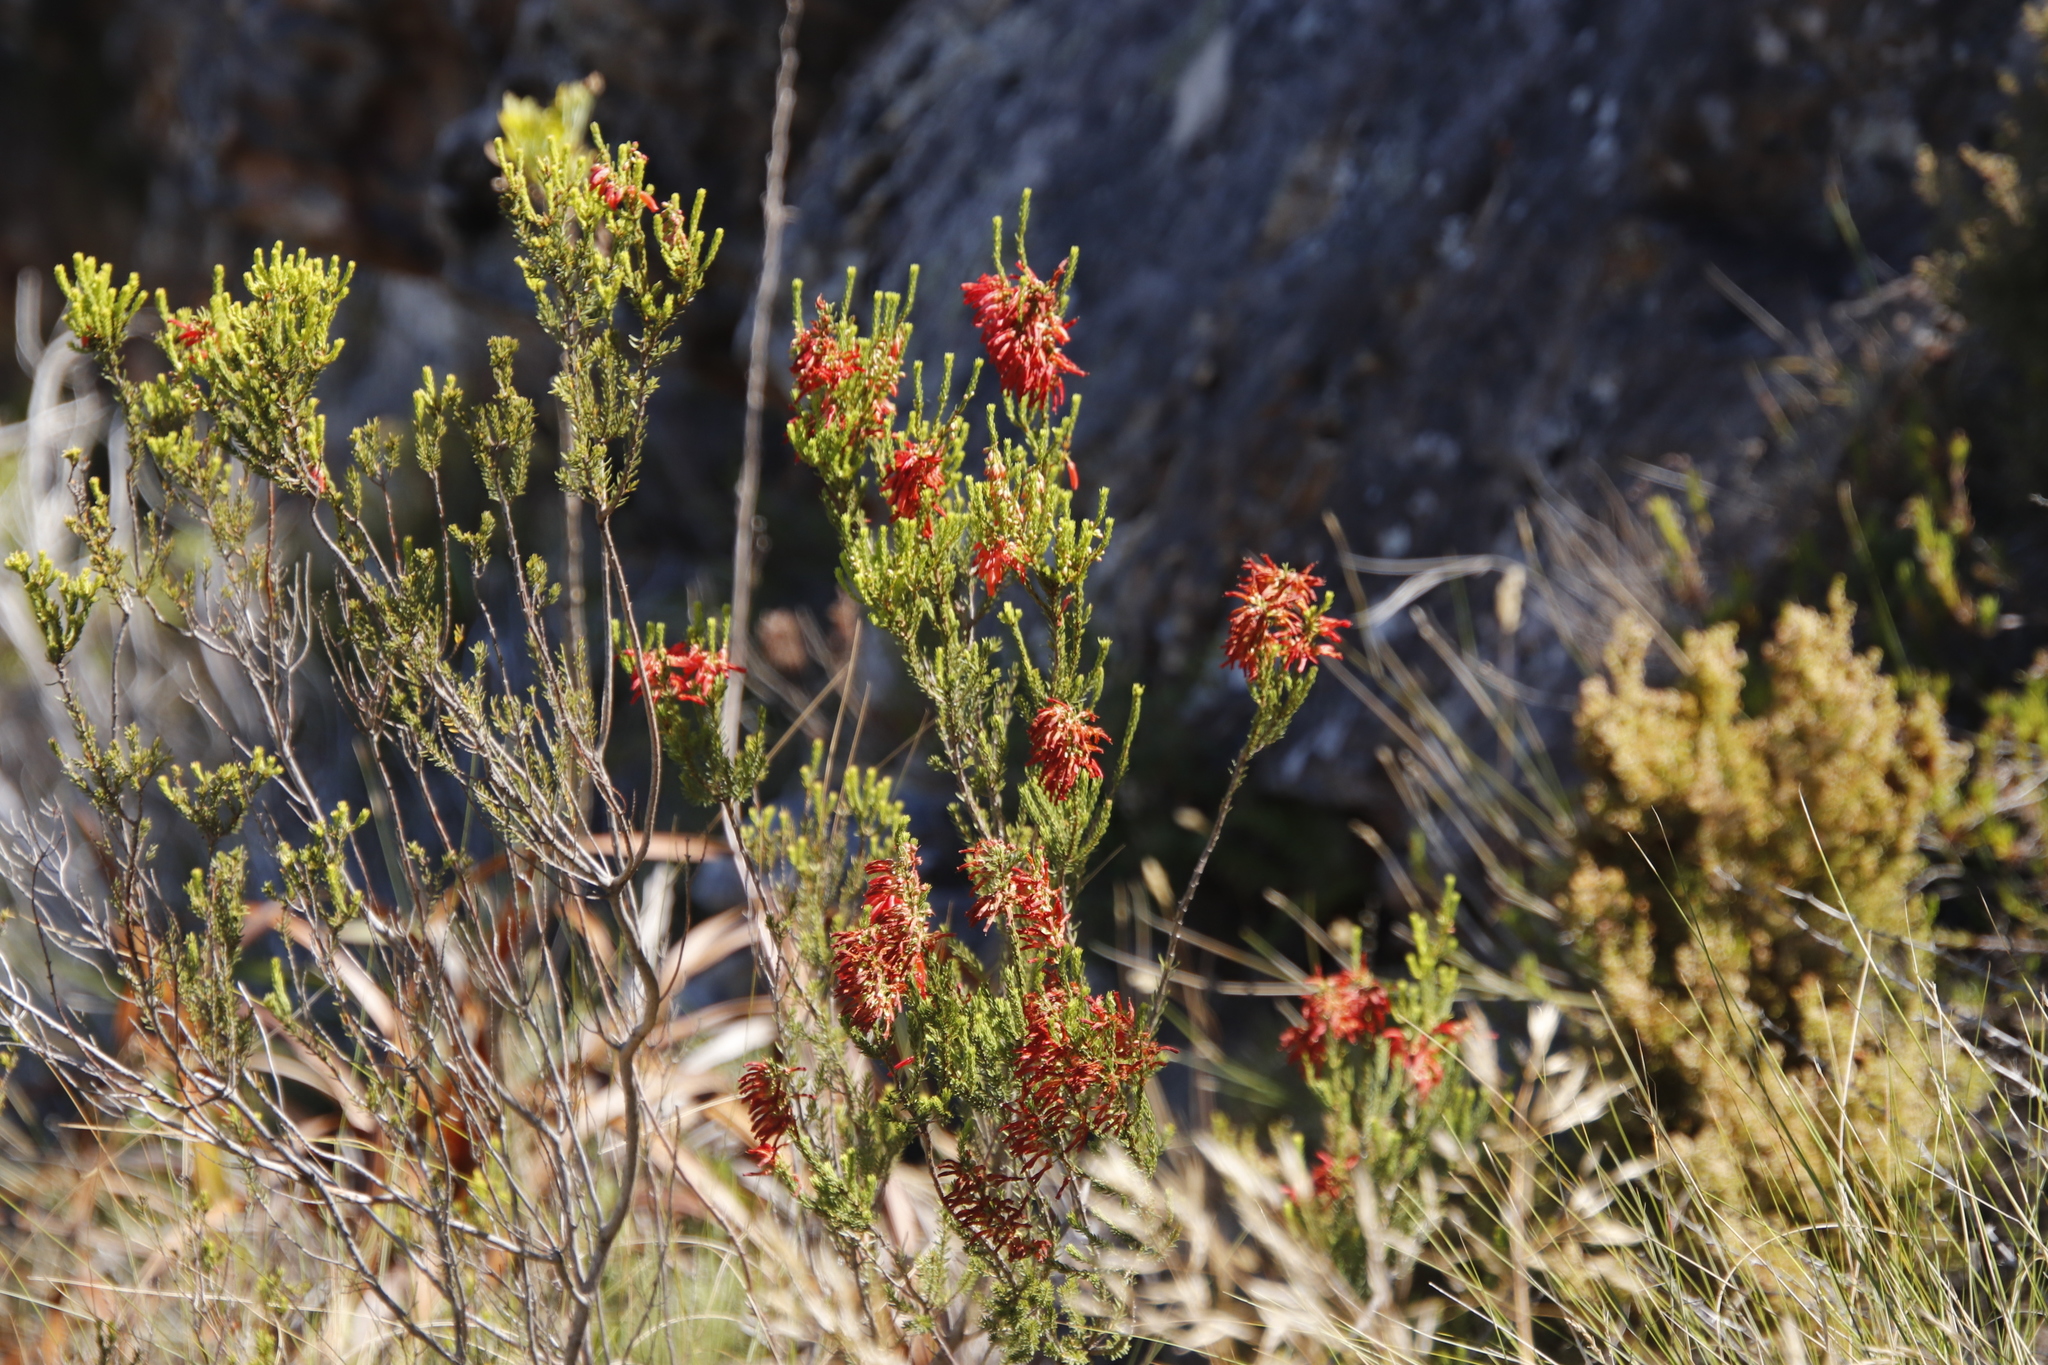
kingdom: Plantae
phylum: Tracheophyta
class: Magnoliopsida
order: Ericales
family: Ericaceae
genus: Erica
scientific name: Erica mammosa
